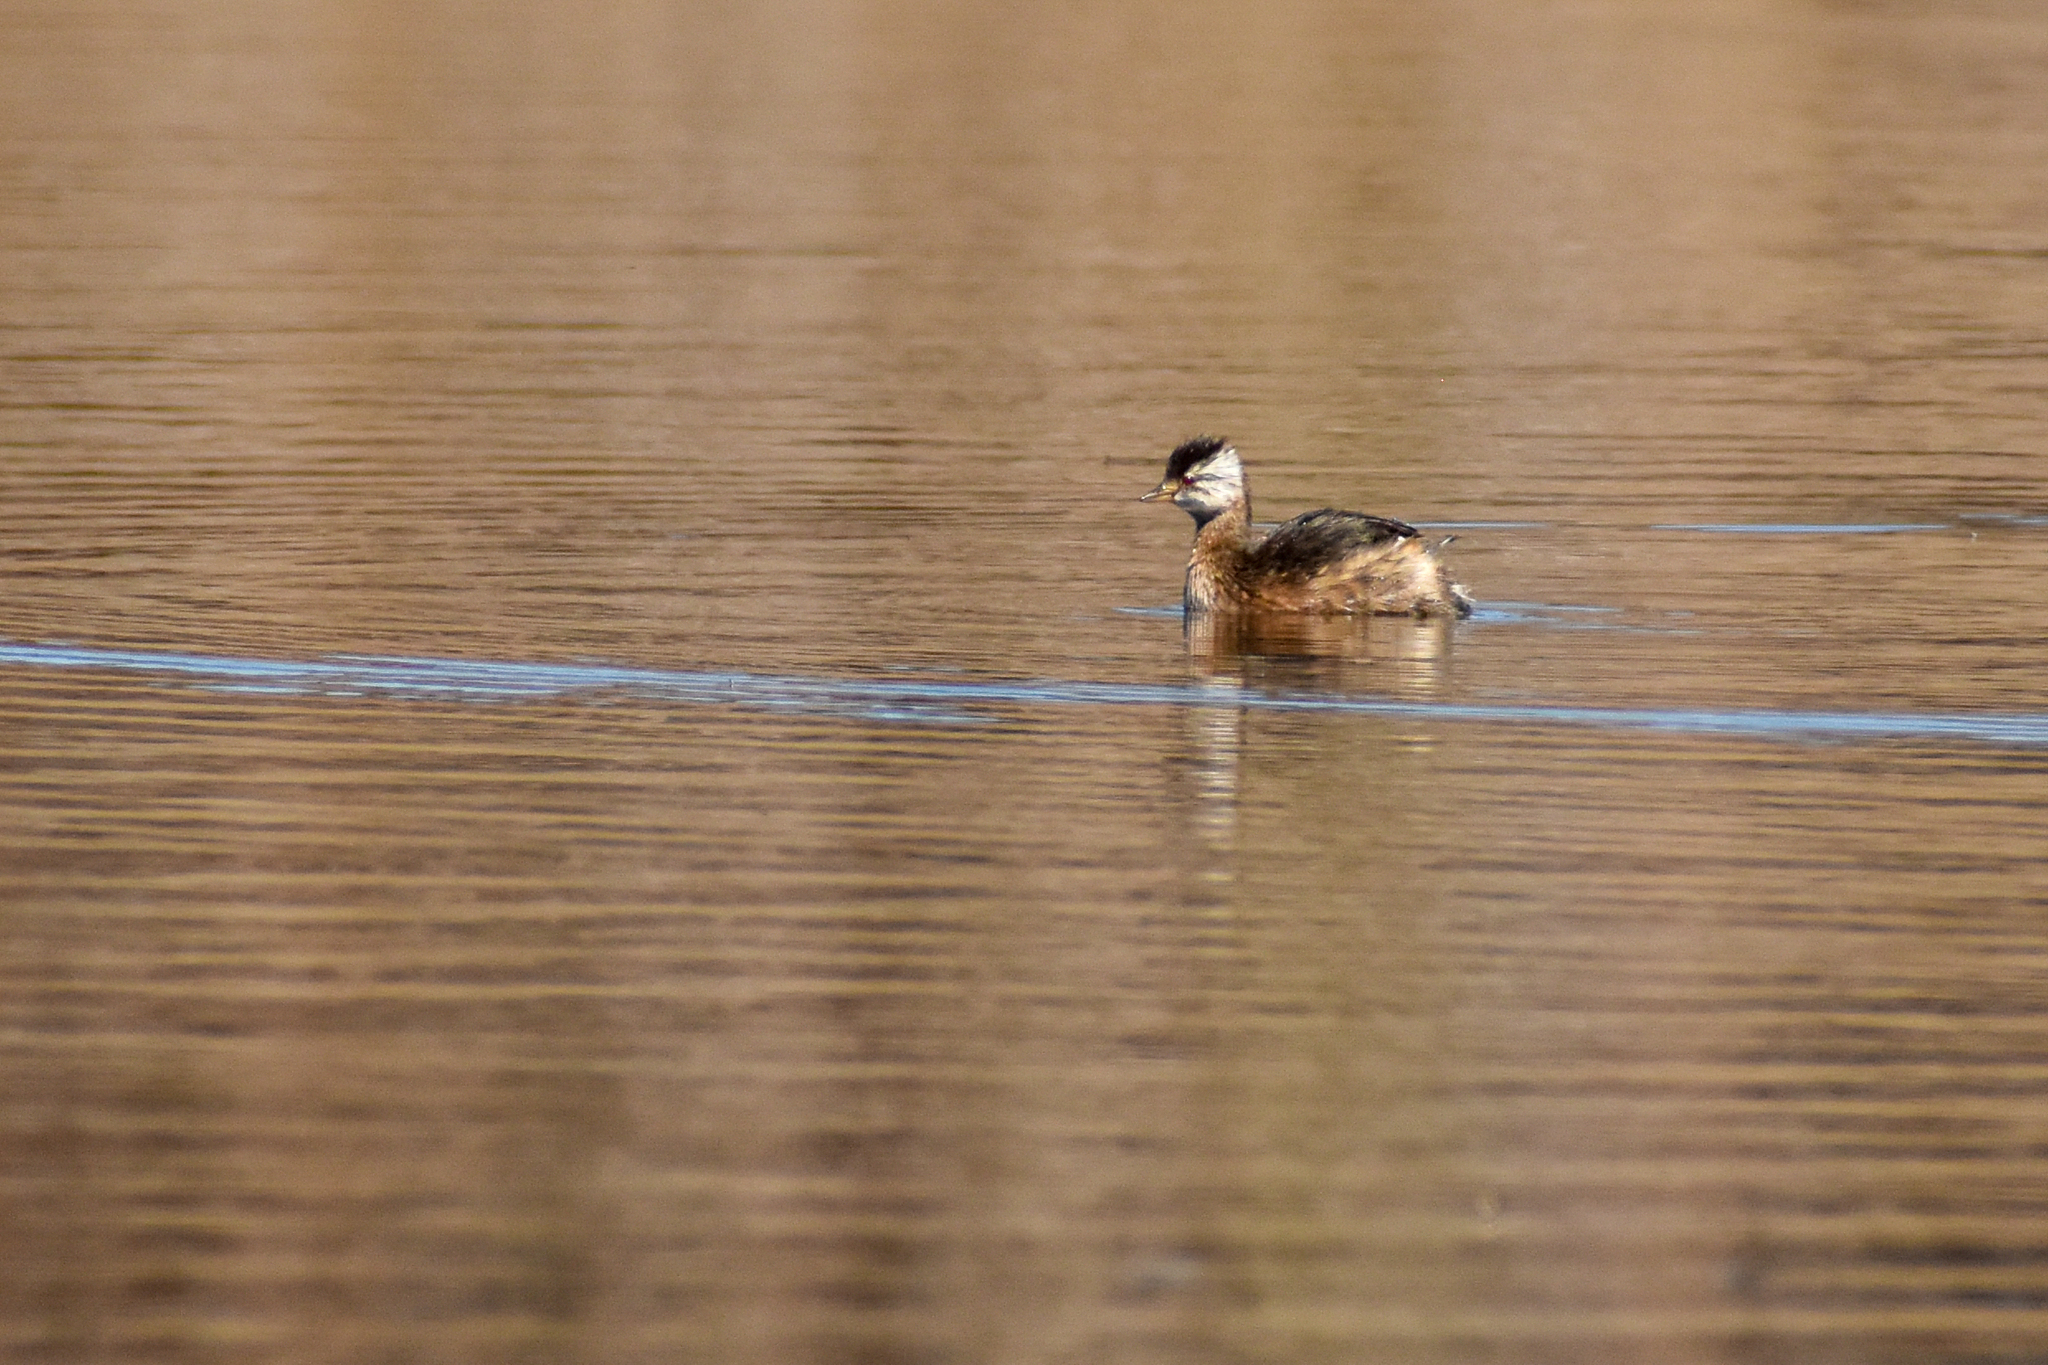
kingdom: Animalia
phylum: Chordata
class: Aves
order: Podicipediformes
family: Podicipedidae
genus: Rollandia
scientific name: Rollandia rolland
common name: White-tufted grebe
